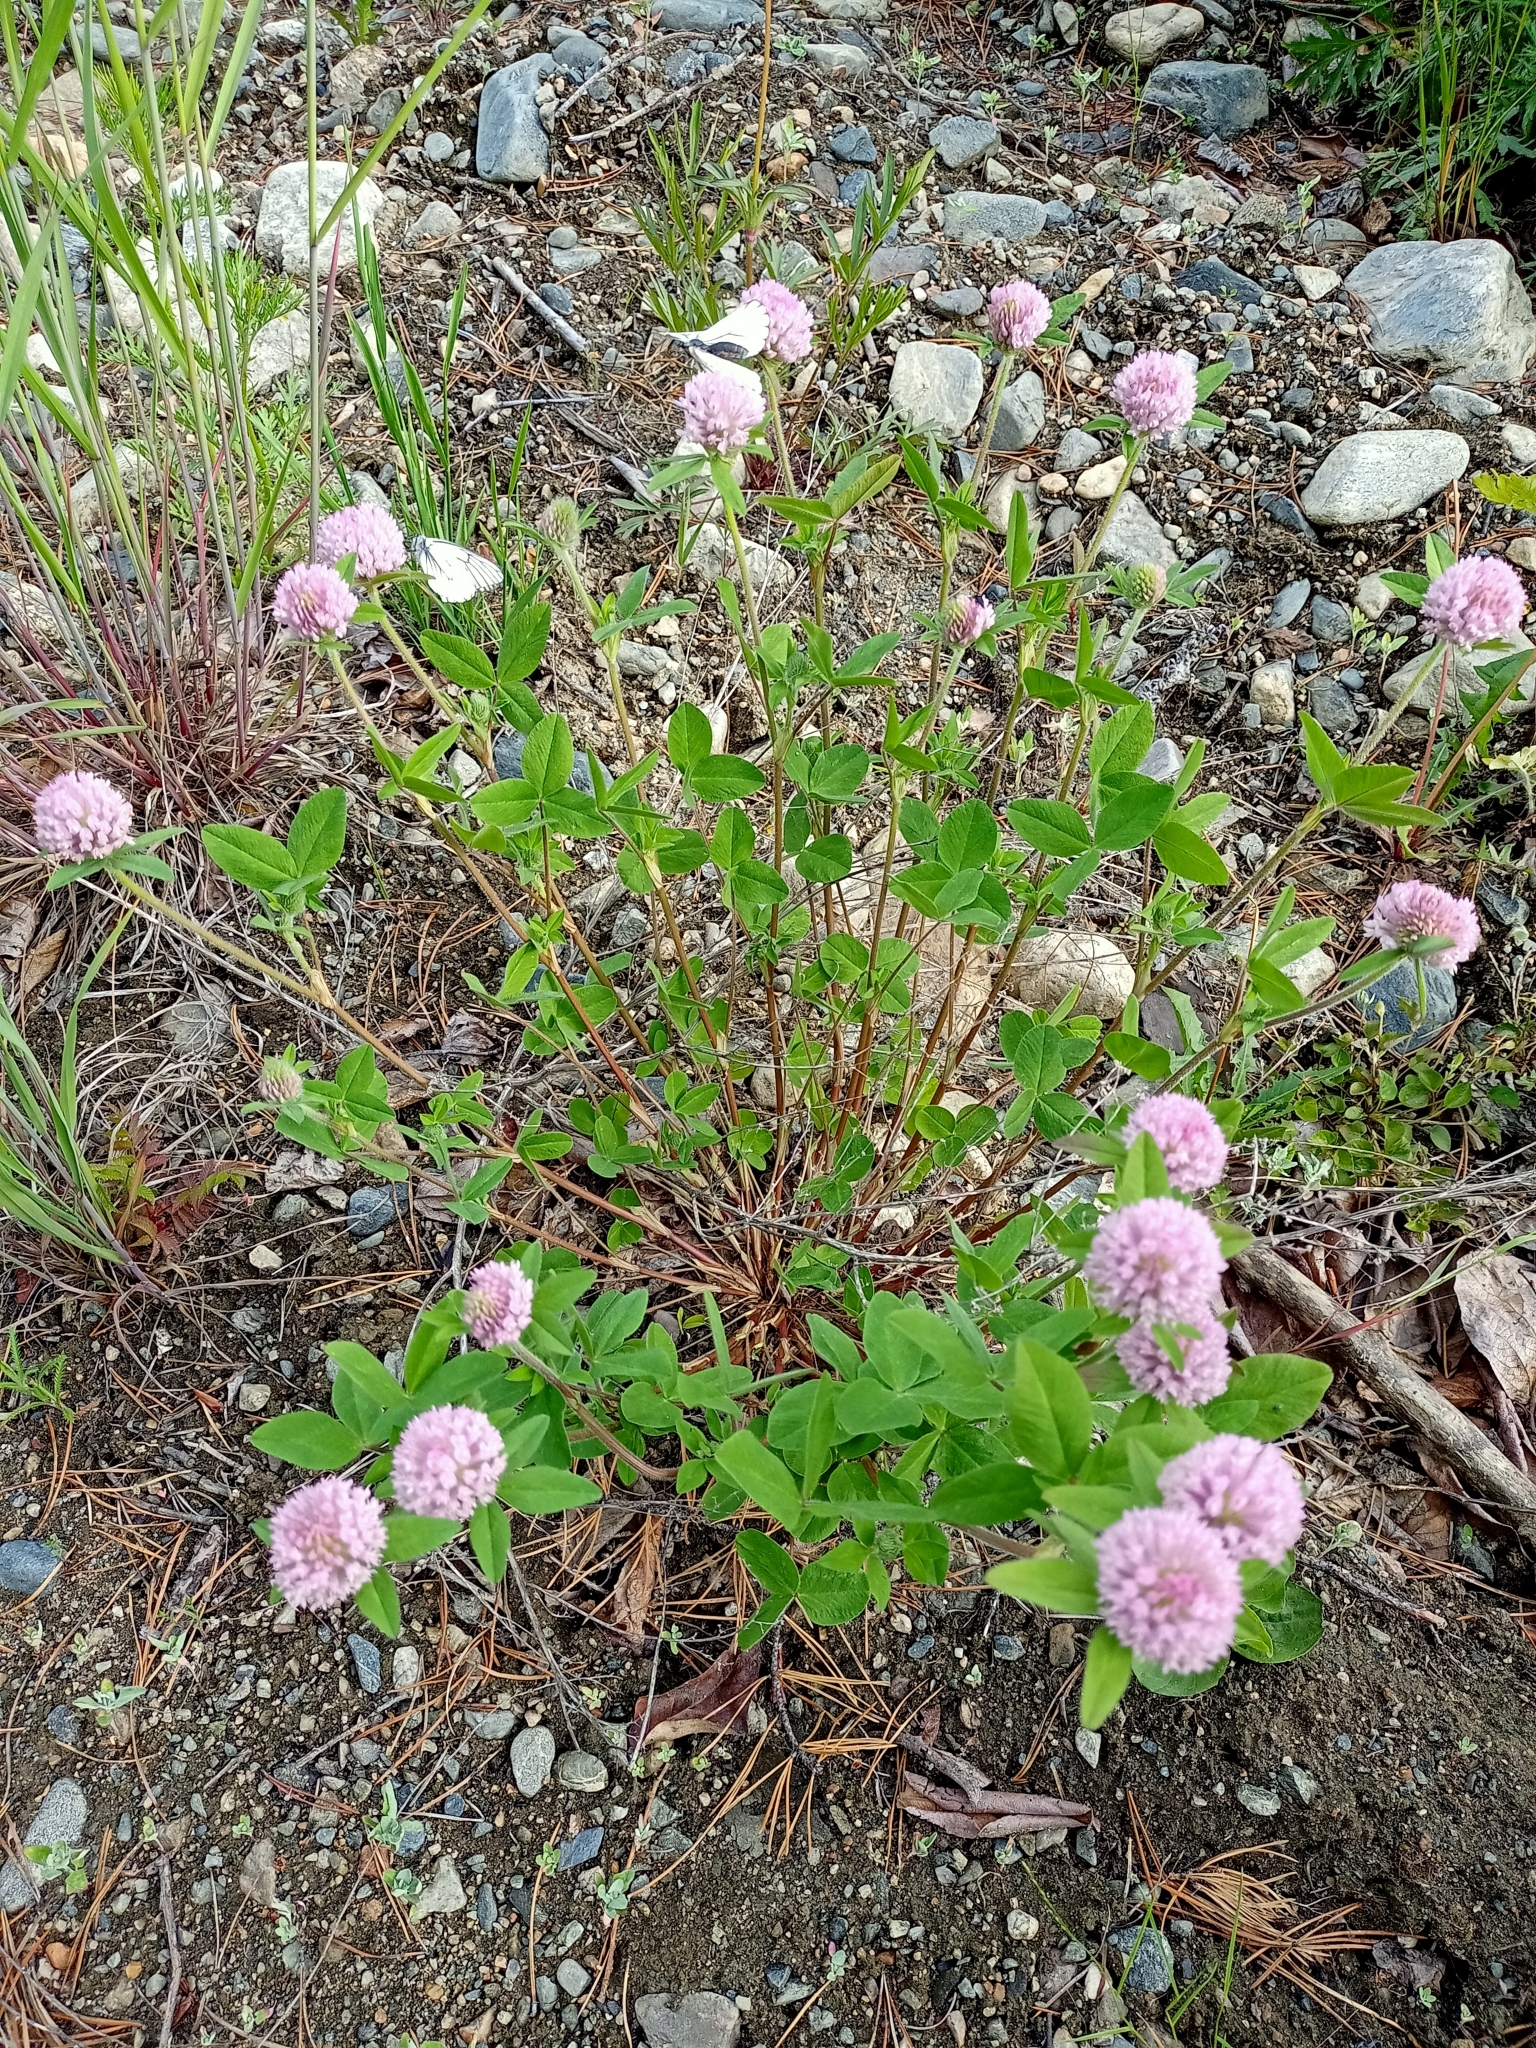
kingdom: Plantae
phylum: Tracheophyta
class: Magnoliopsida
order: Fabales
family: Fabaceae
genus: Trifolium
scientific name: Trifolium pratense
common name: Red clover
